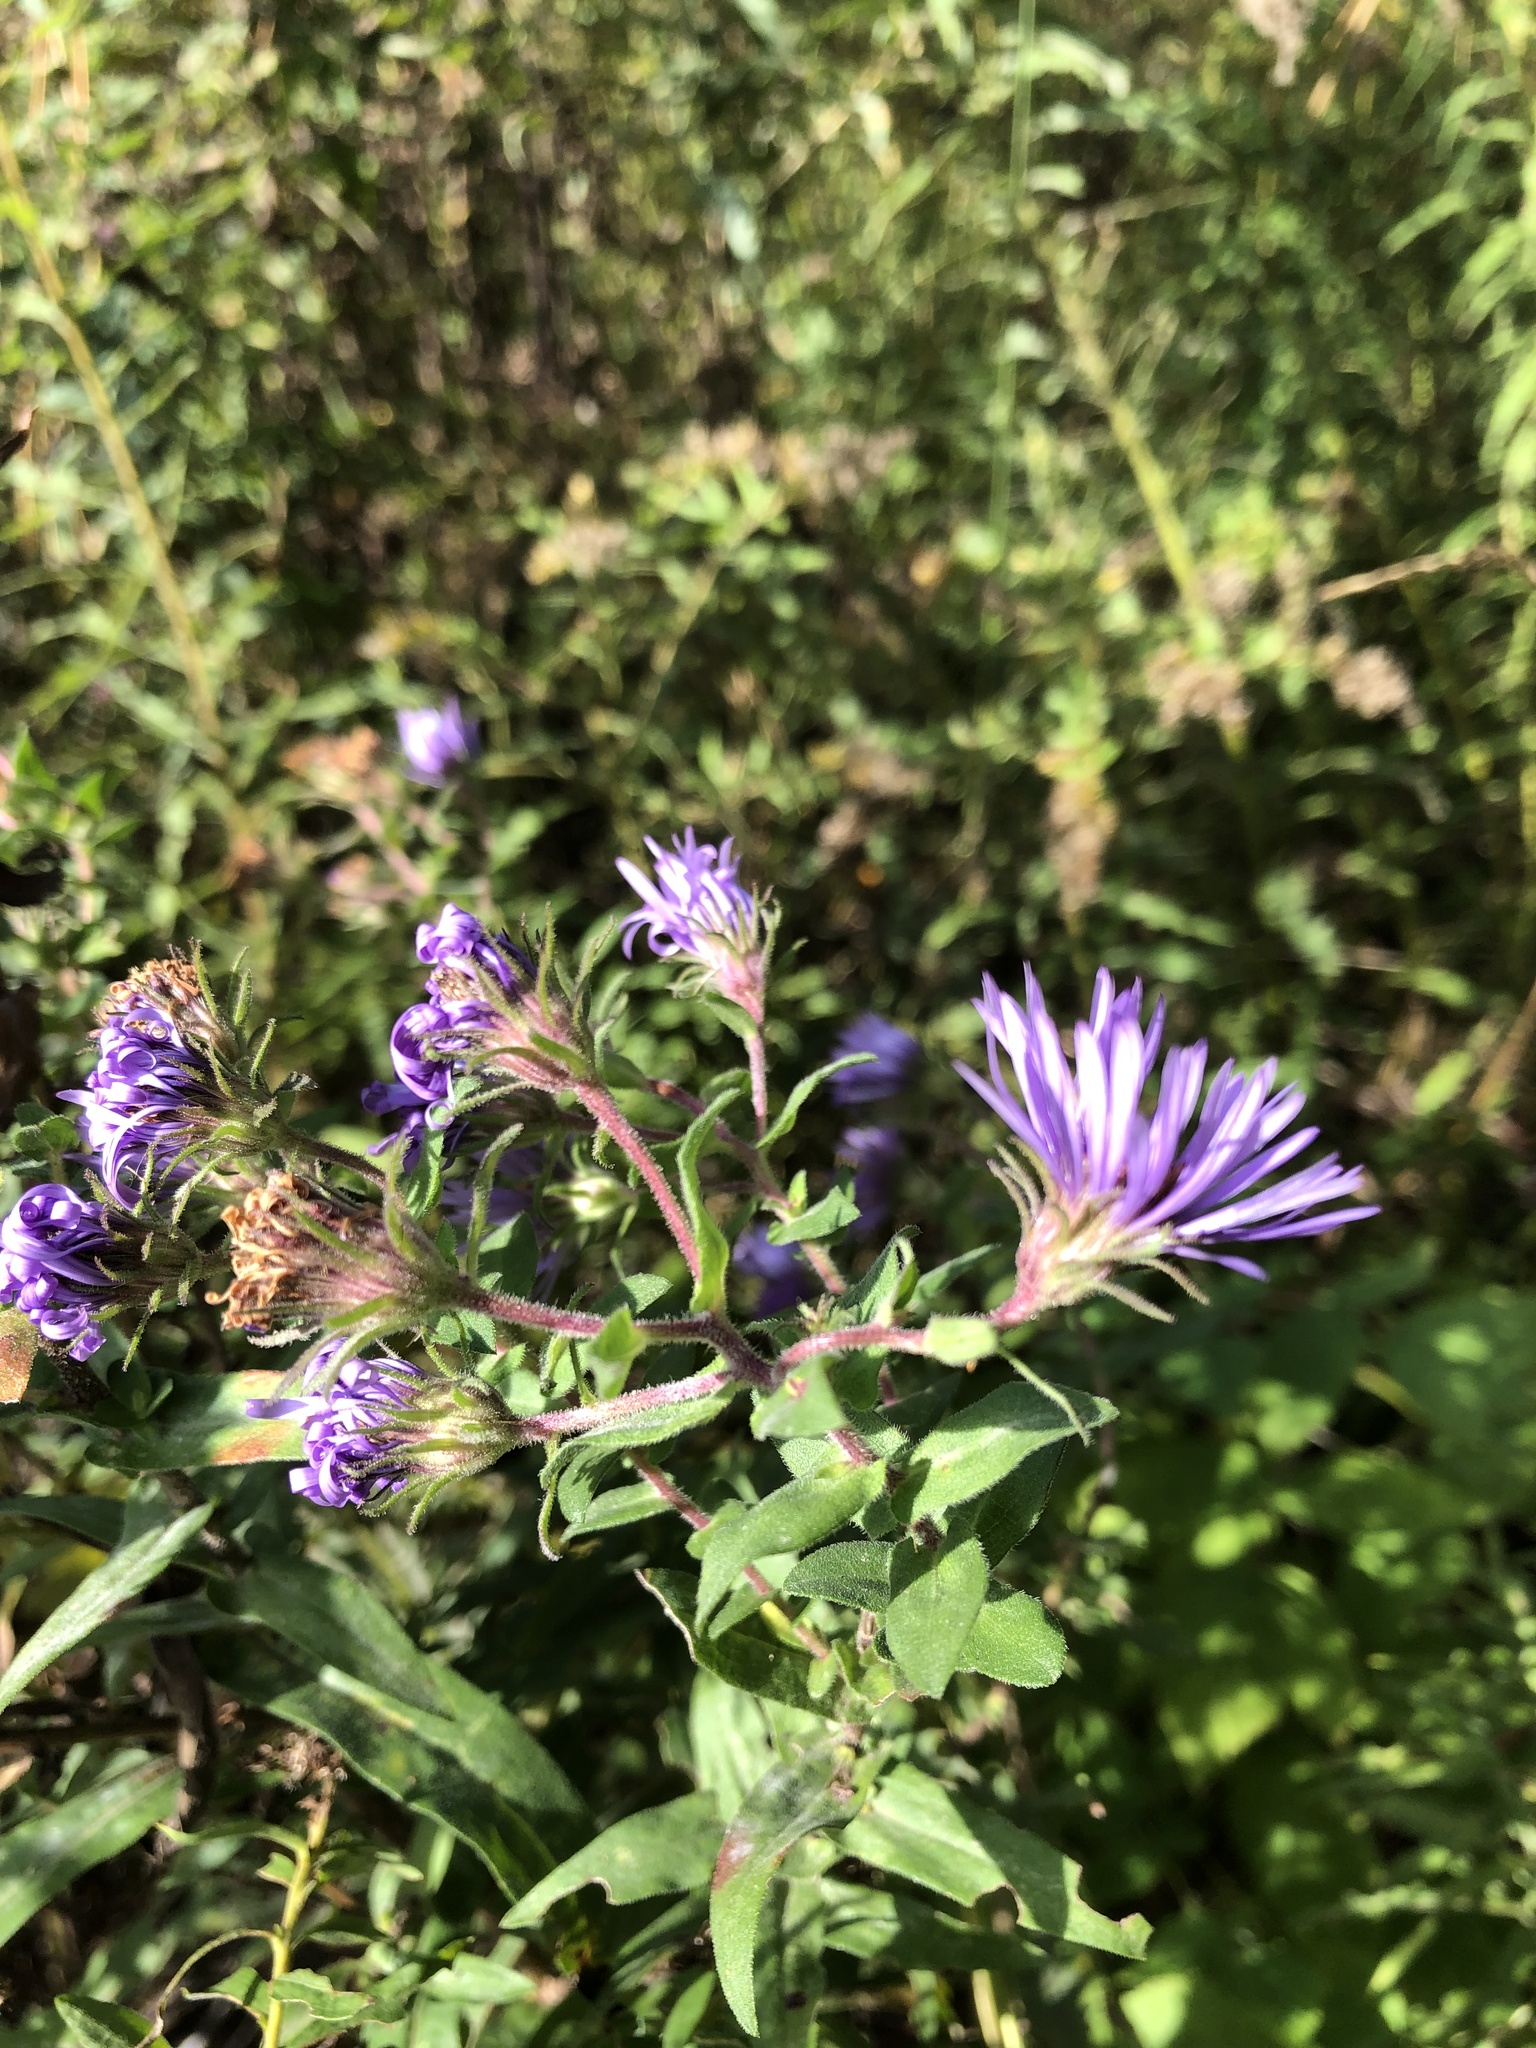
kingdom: Plantae
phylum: Tracheophyta
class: Magnoliopsida
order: Asterales
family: Asteraceae
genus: Symphyotrichum
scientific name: Symphyotrichum novae-angliae
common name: Michaelmas daisy
